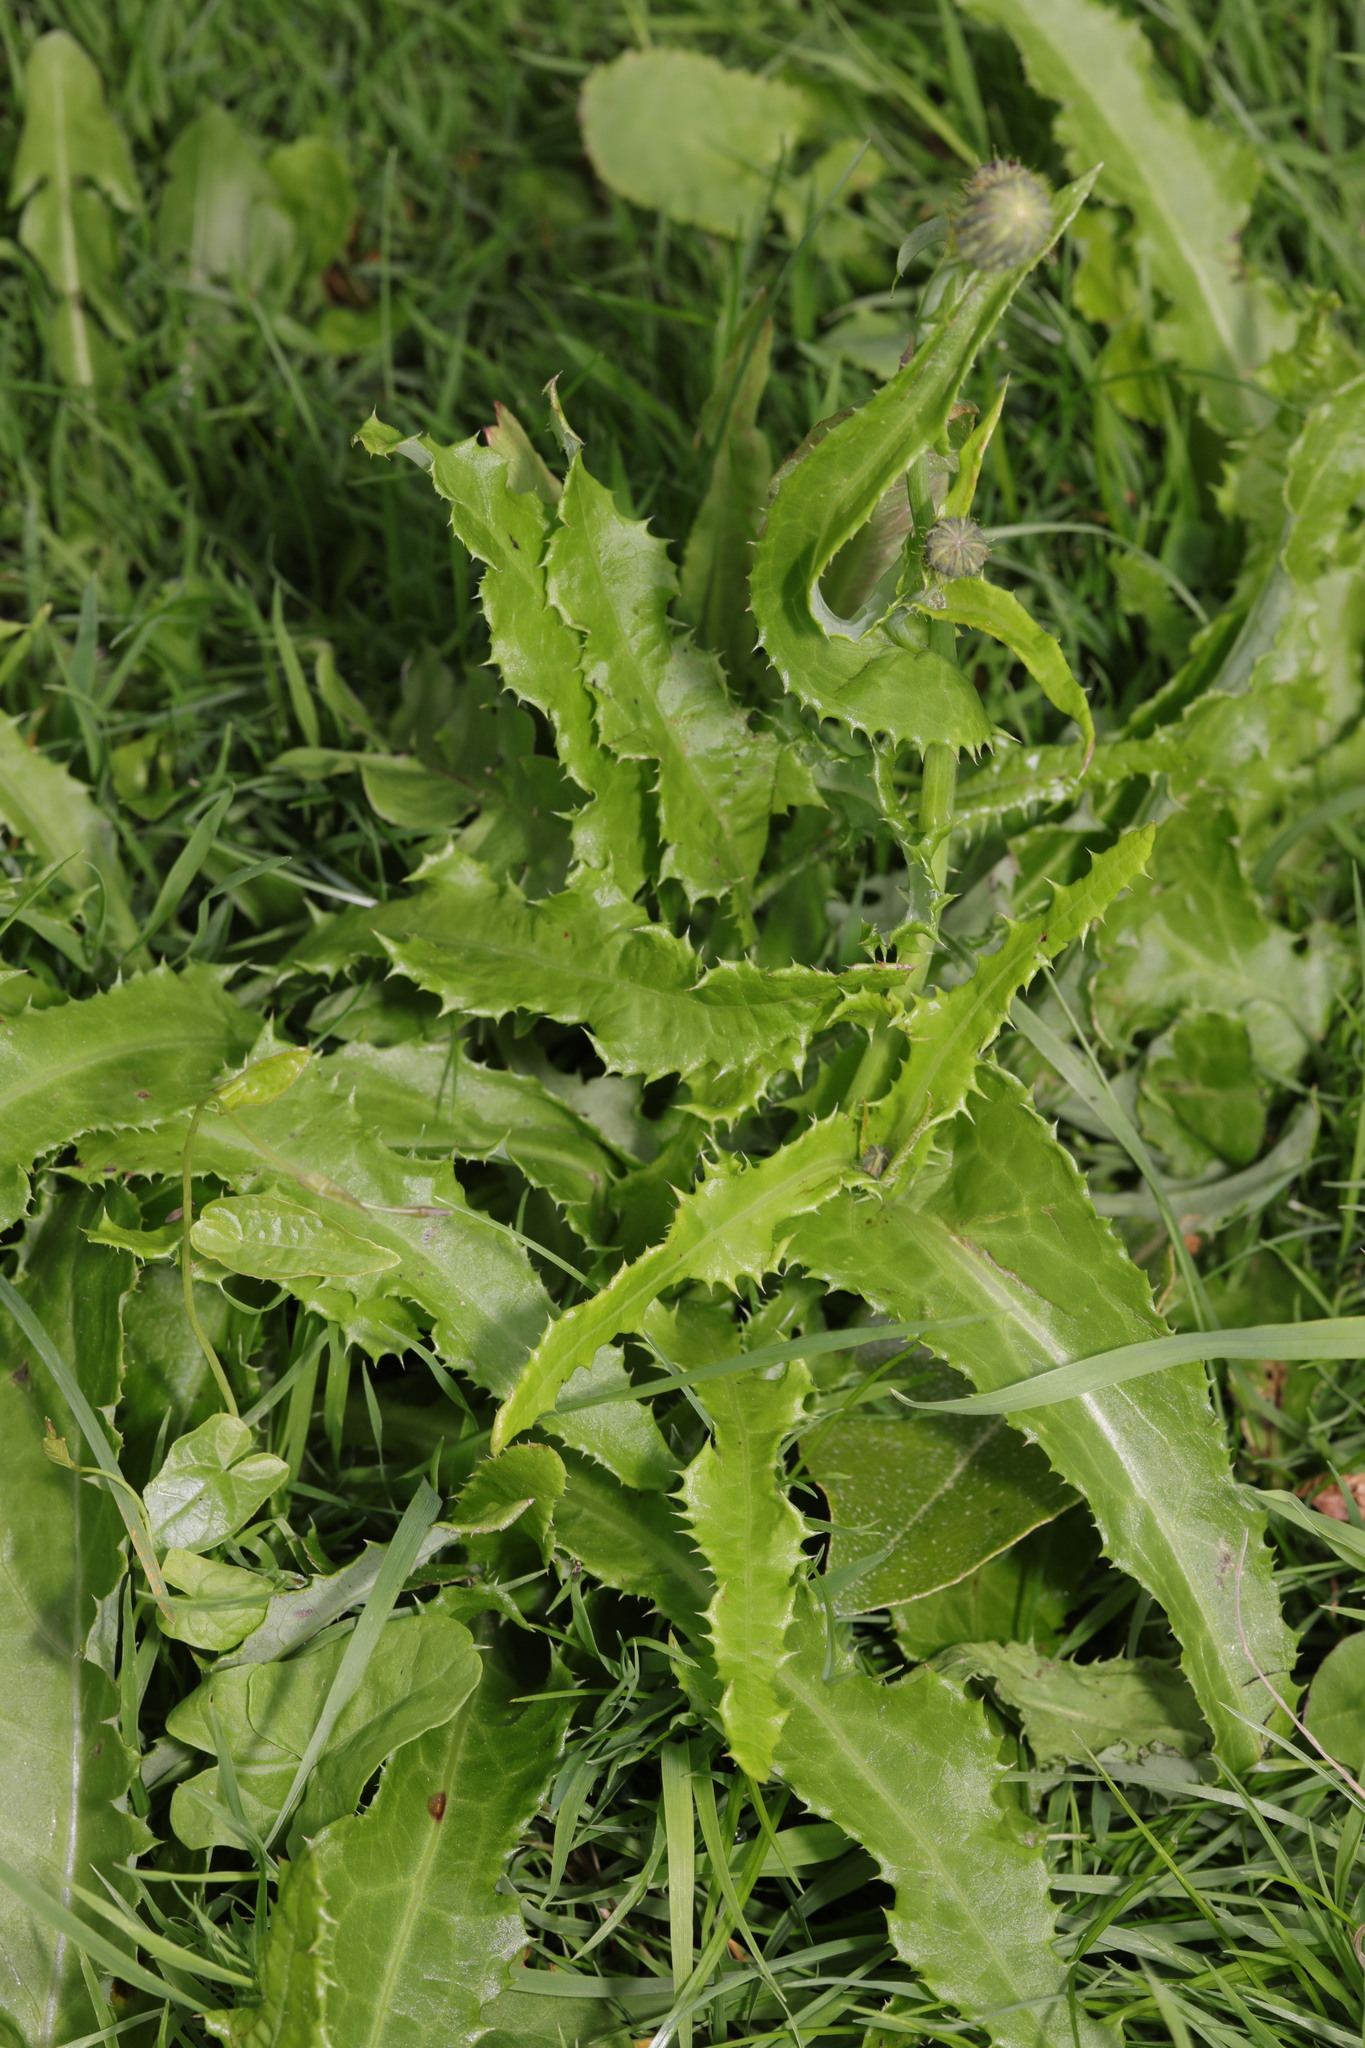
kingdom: Plantae
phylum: Tracheophyta
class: Magnoliopsida
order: Asterales
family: Asteraceae
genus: Sonchus
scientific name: Sonchus arvensis
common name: Perennial sow-thistle
